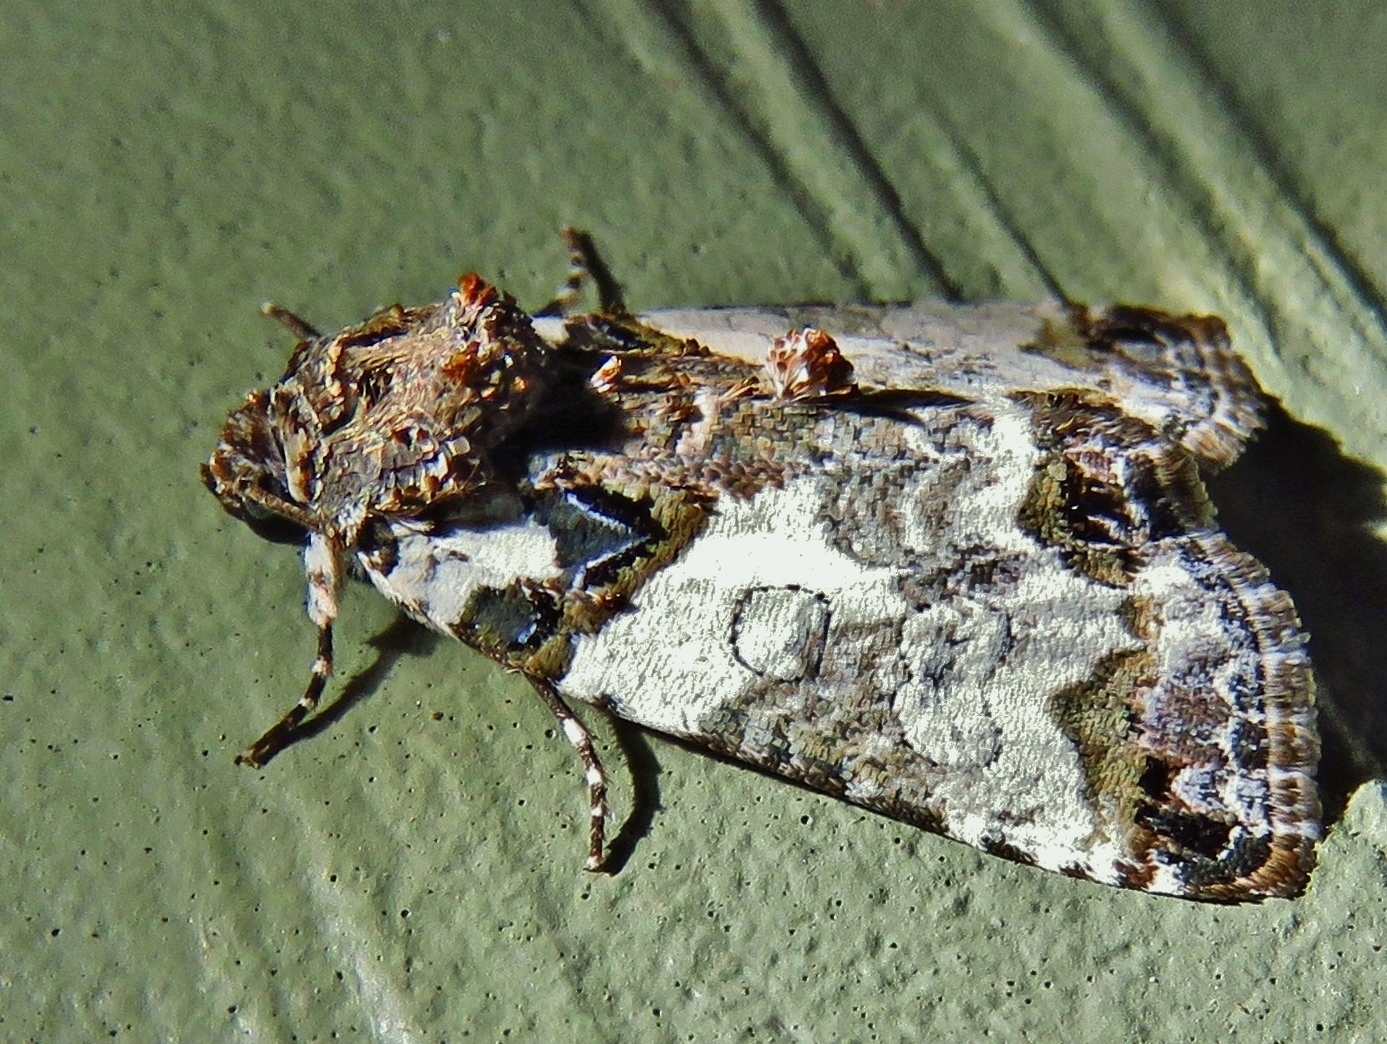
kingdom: Animalia
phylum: Arthropoda
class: Insecta
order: Lepidoptera
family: Noctuidae
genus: Cerma
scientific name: Cerma cerintha
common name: Tufted bird-dropping moth
